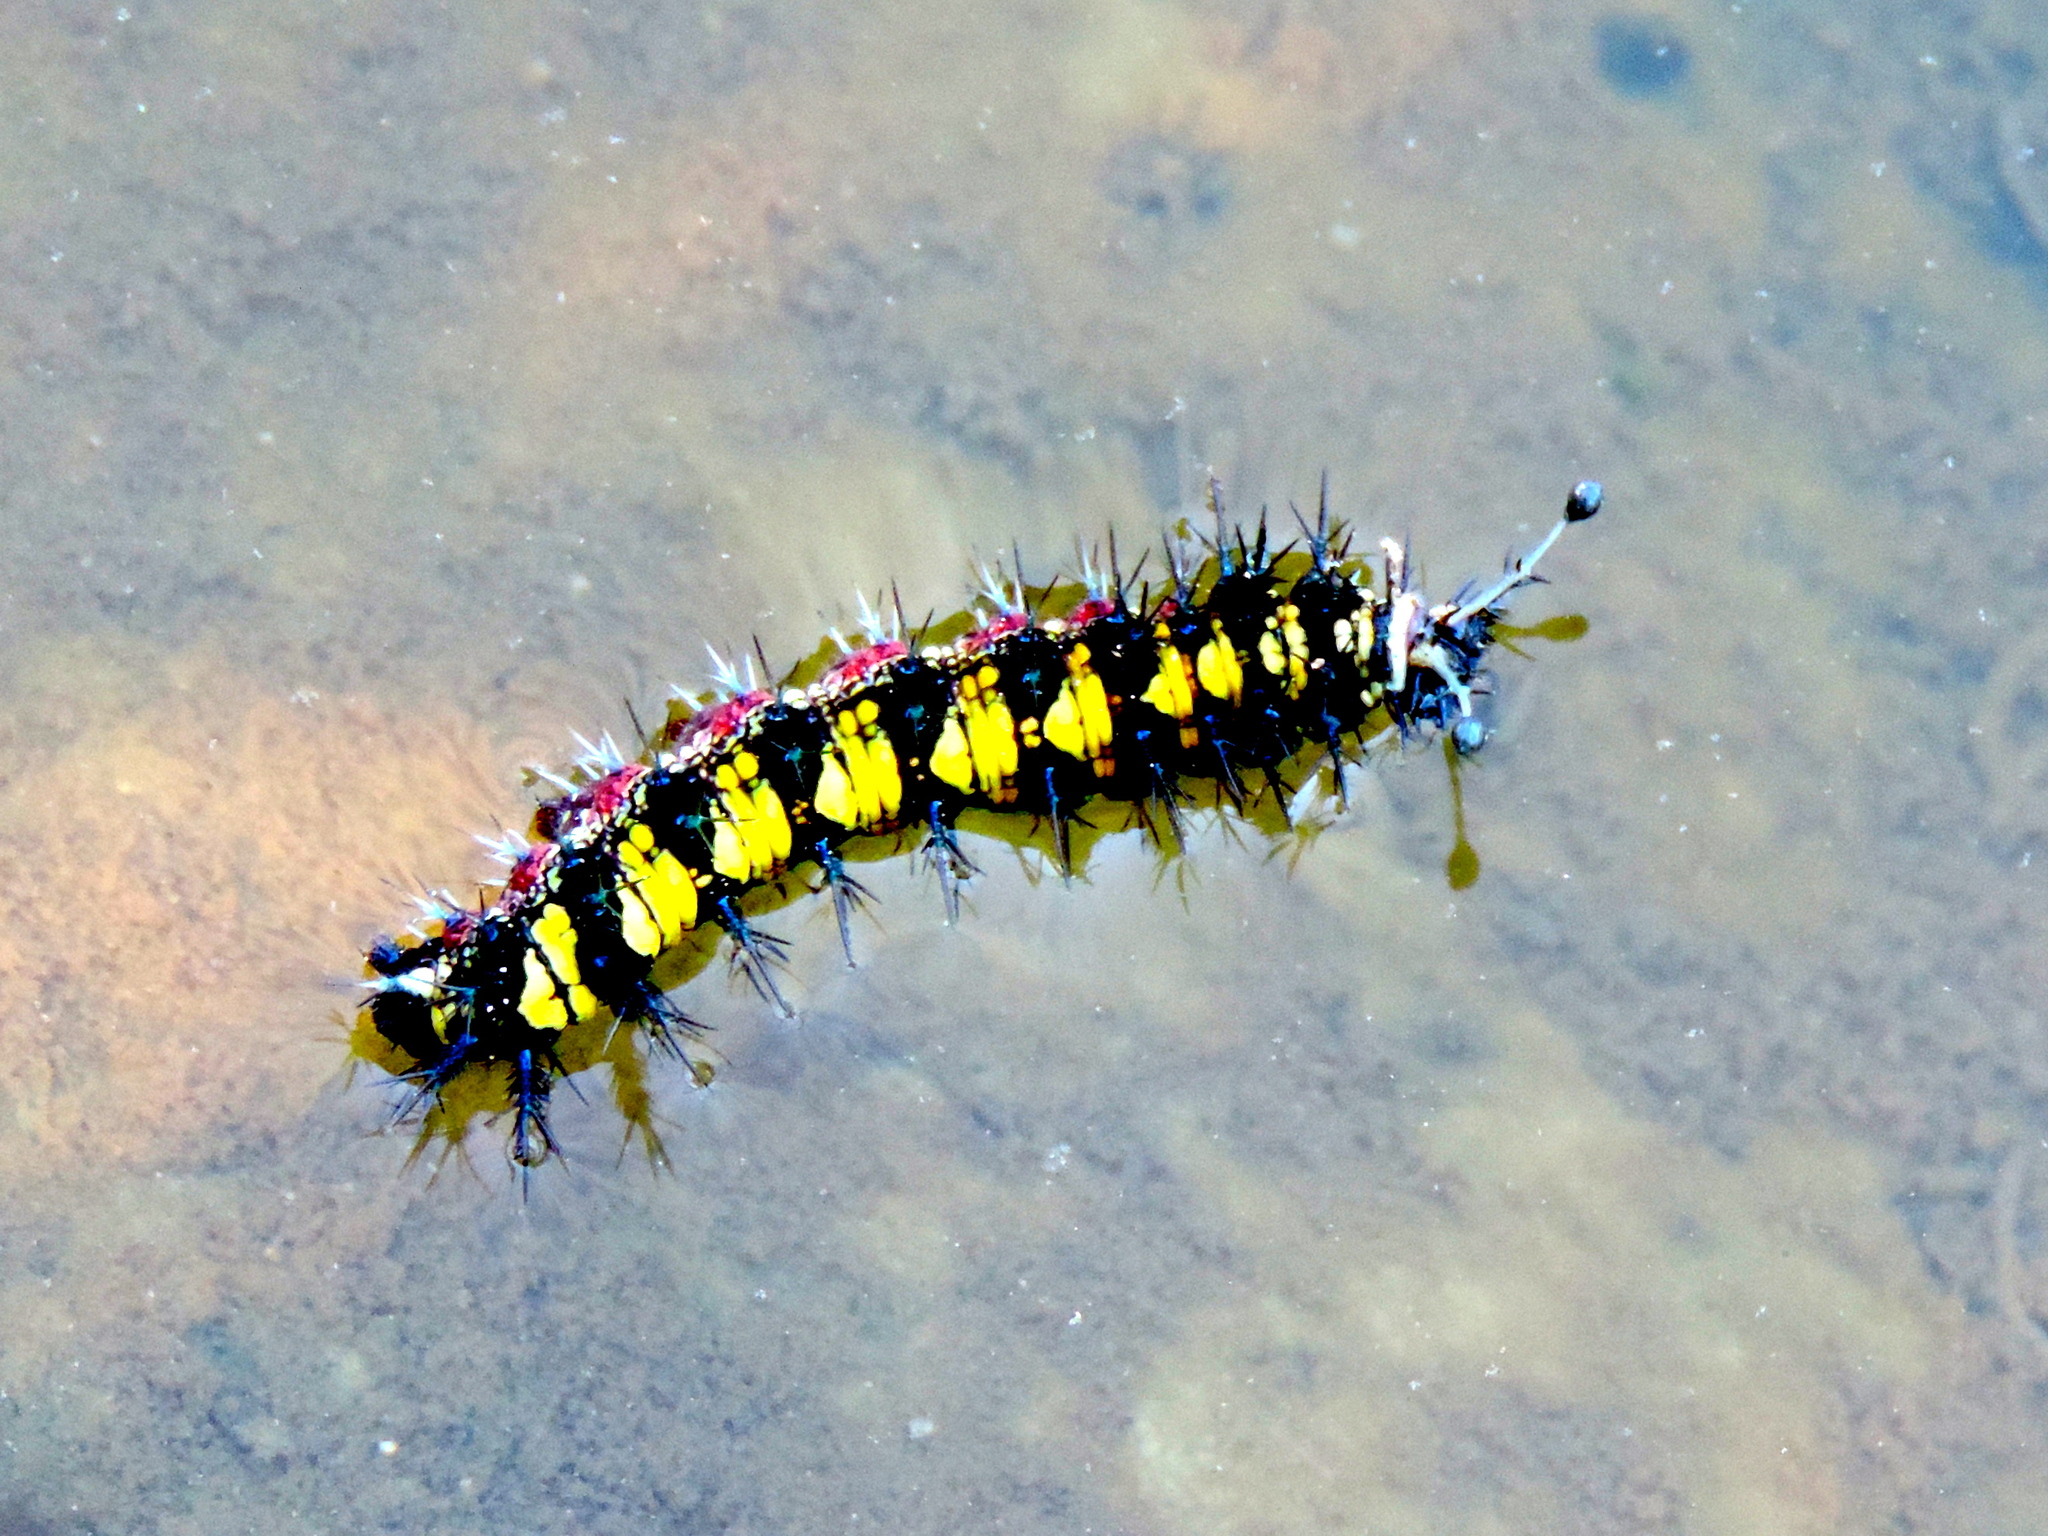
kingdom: Animalia
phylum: Arthropoda
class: Insecta
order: Lepidoptera
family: Nymphalidae
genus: Hamadryas
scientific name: Hamadryas guatemalena
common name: Guatemalan cracker
